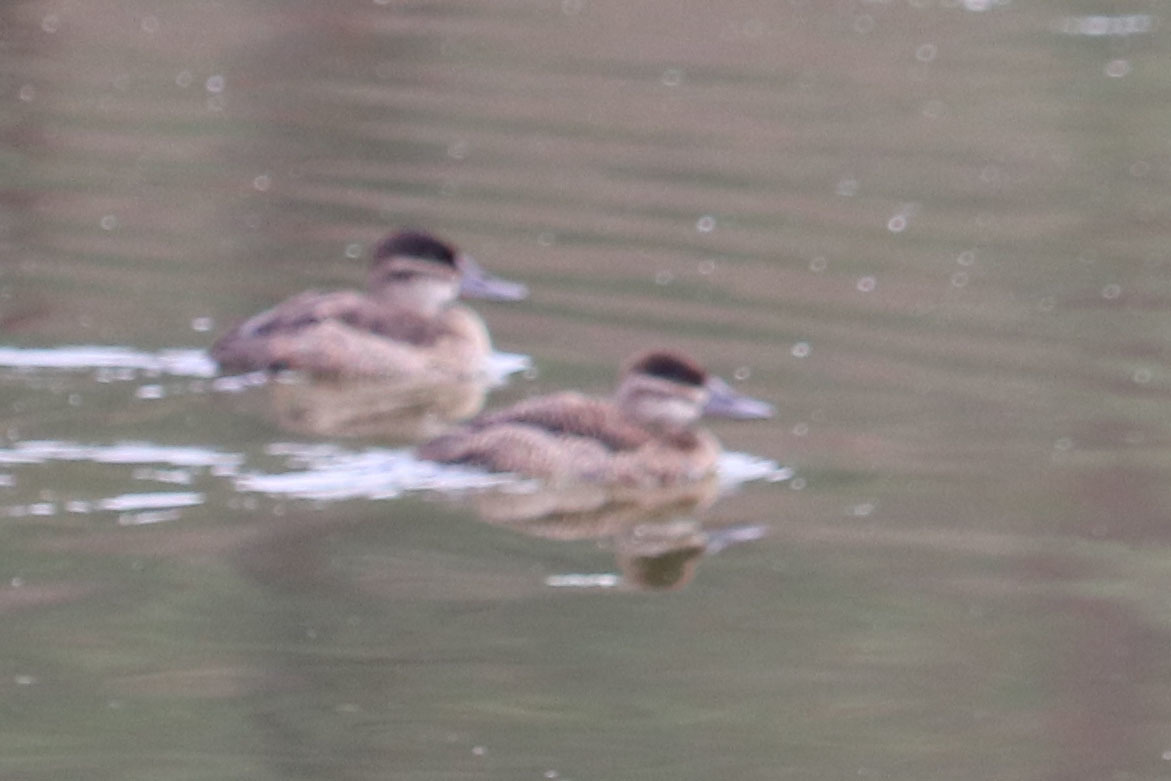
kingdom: Animalia
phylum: Chordata
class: Aves
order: Anseriformes
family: Anatidae
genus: Oxyura
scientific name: Oxyura jamaicensis
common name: Ruddy duck
